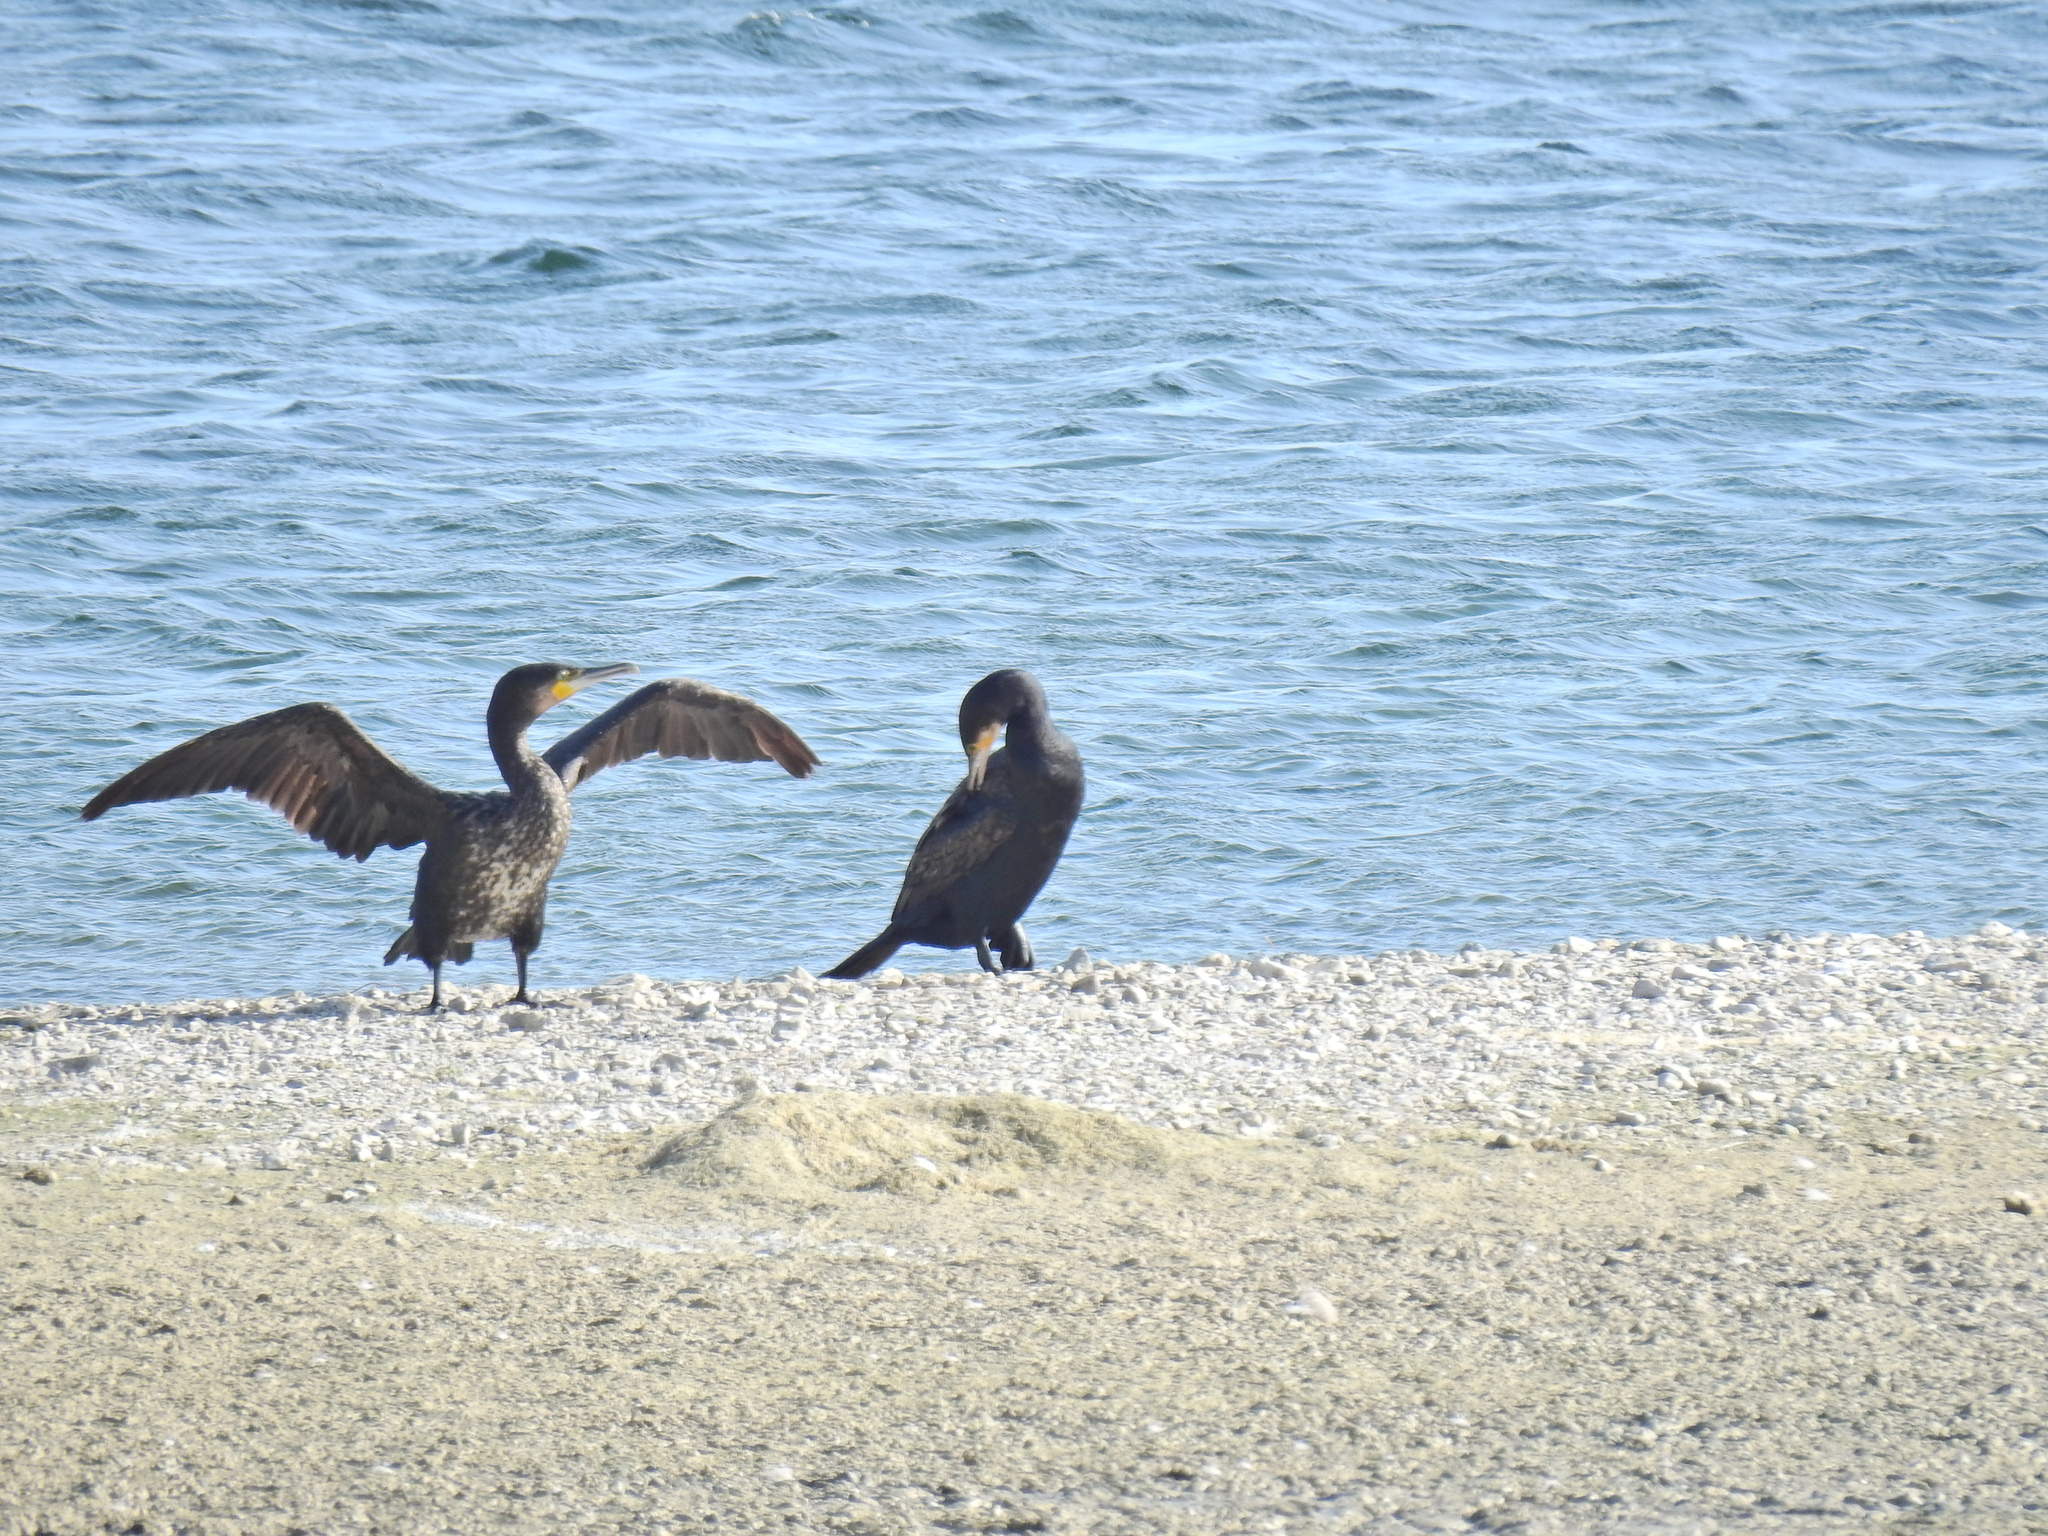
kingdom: Animalia
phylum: Chordata
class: Aves
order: Suliformes
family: Phalacrocoracidae
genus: Phalacrocorax
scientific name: Phalacrocorax carbo
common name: Great cormorant
